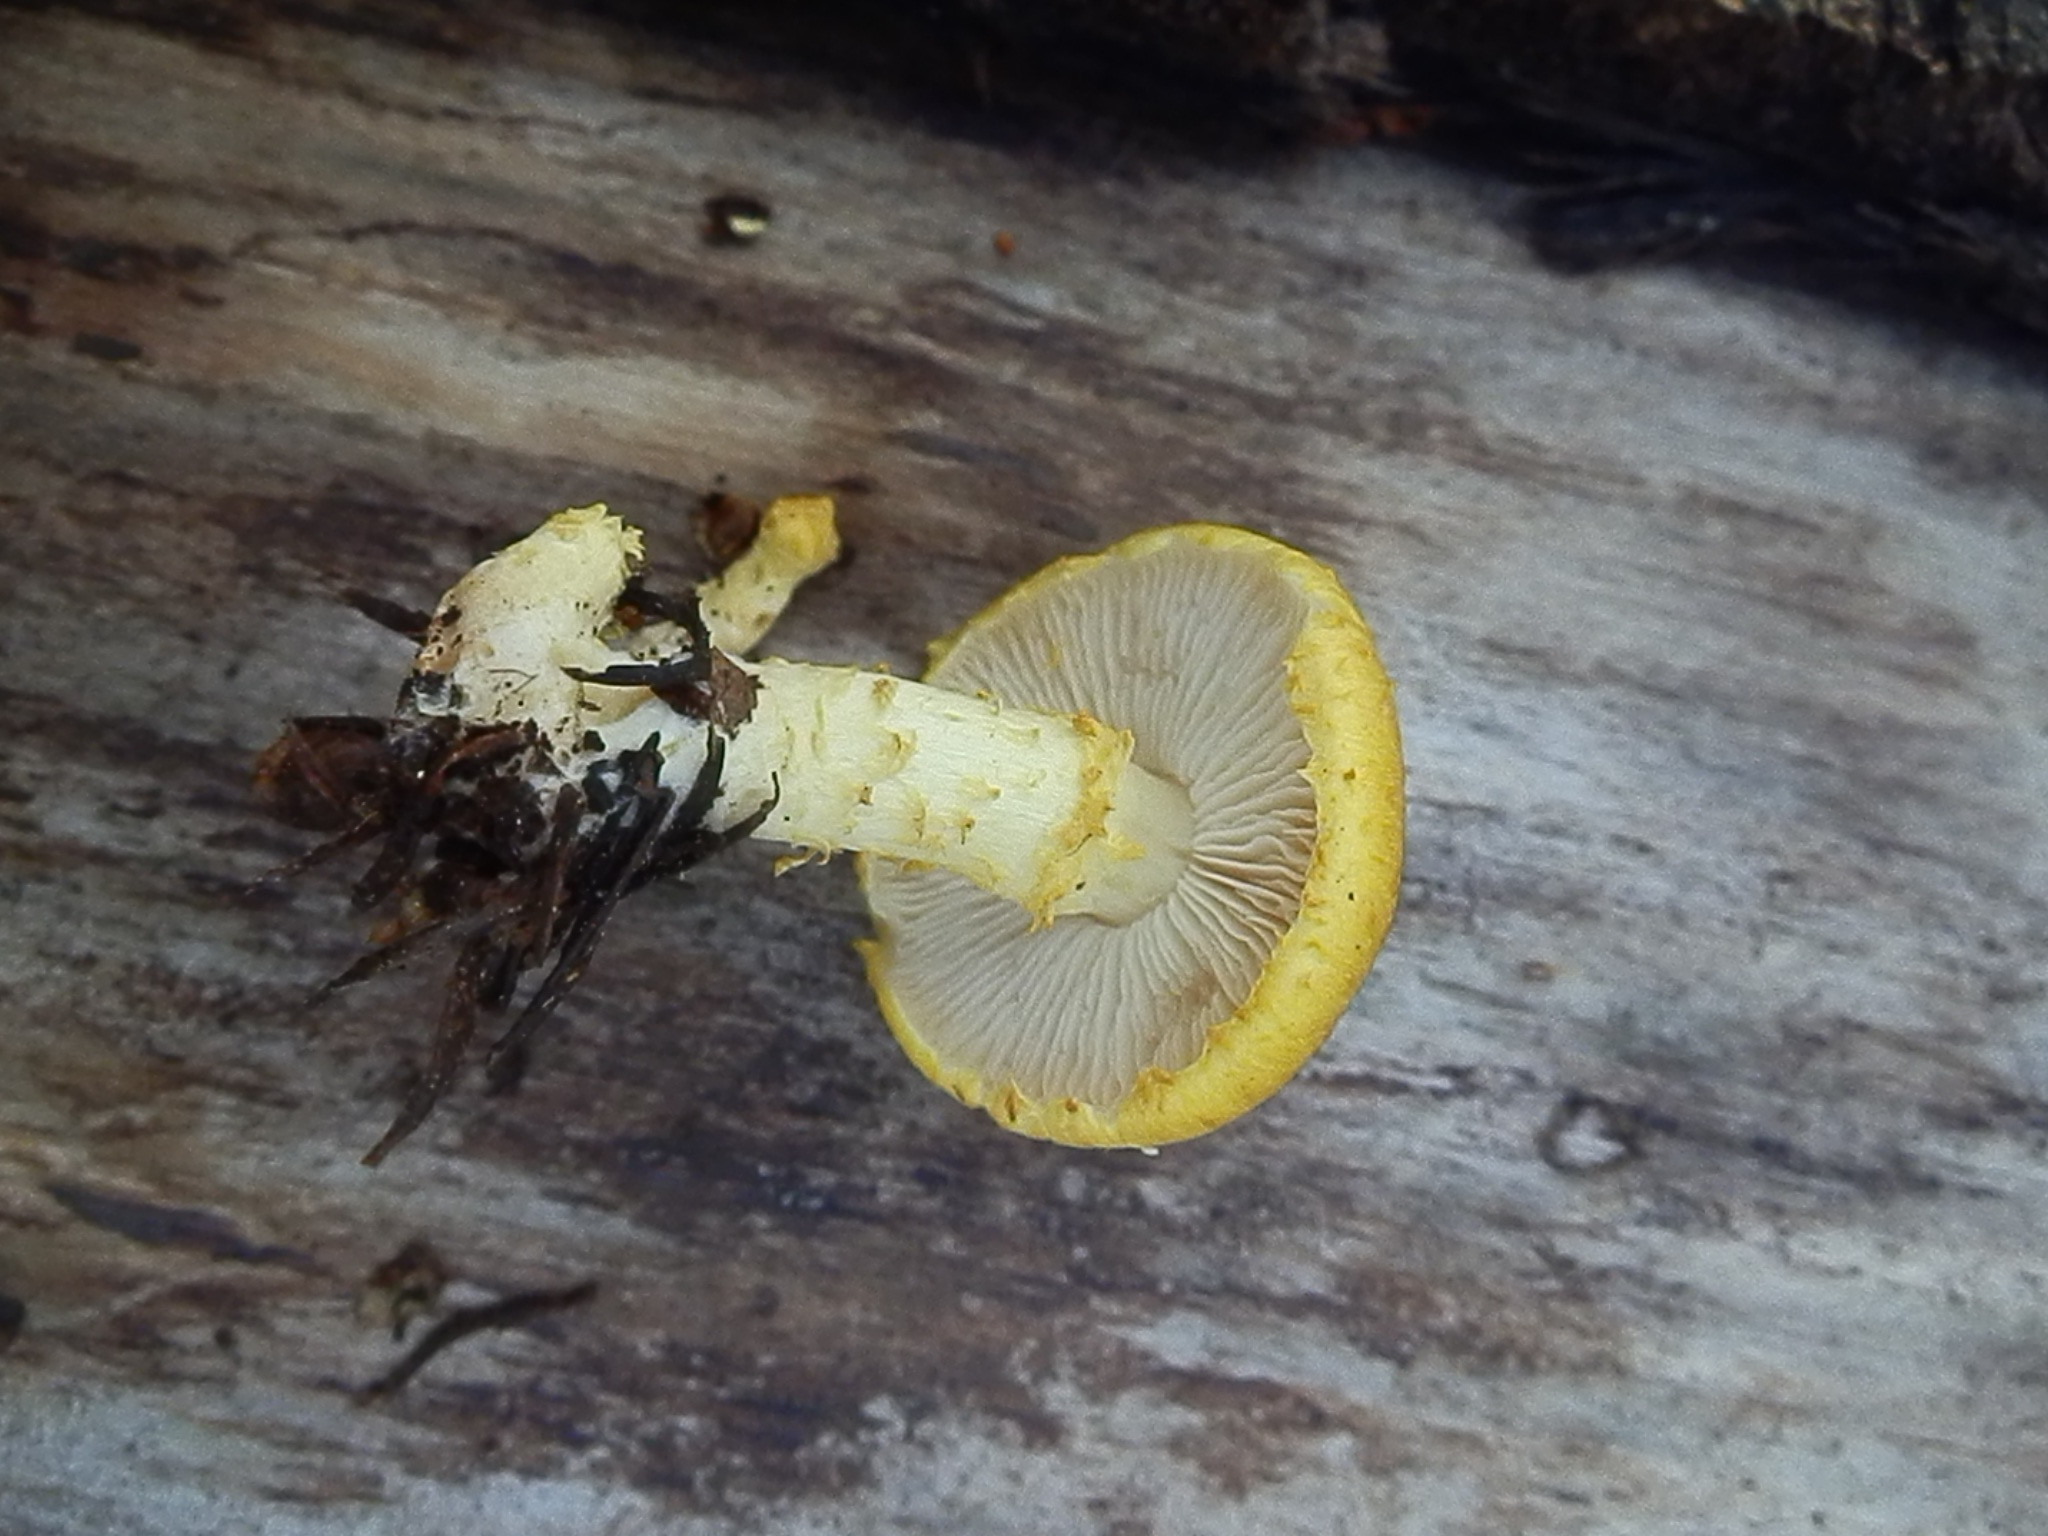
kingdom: Fungi
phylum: Basidiomycota
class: Agaricomycetes
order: Agaricales
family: Agaricaceae
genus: Floccularia
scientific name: Floccularia albolanaripes
